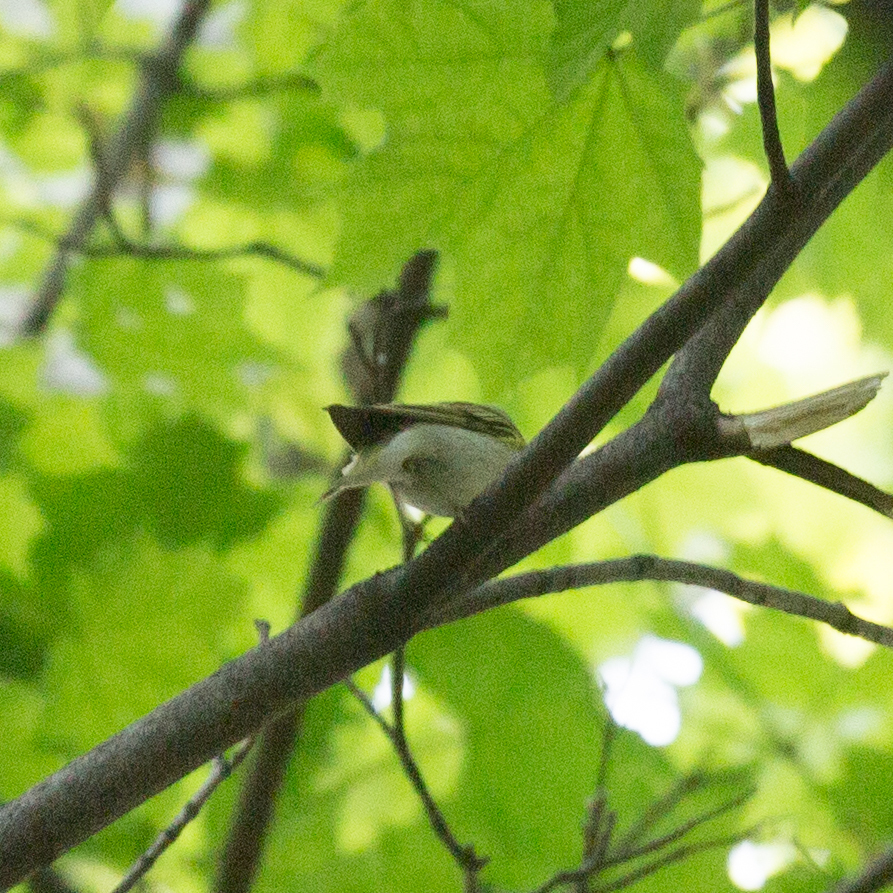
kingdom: Animalia
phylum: Chordata
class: Aves
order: Passeriformes
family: Phylloscopidae
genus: Phylloscopus
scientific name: Phylloscopus sibillatrix
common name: Wood warbler
